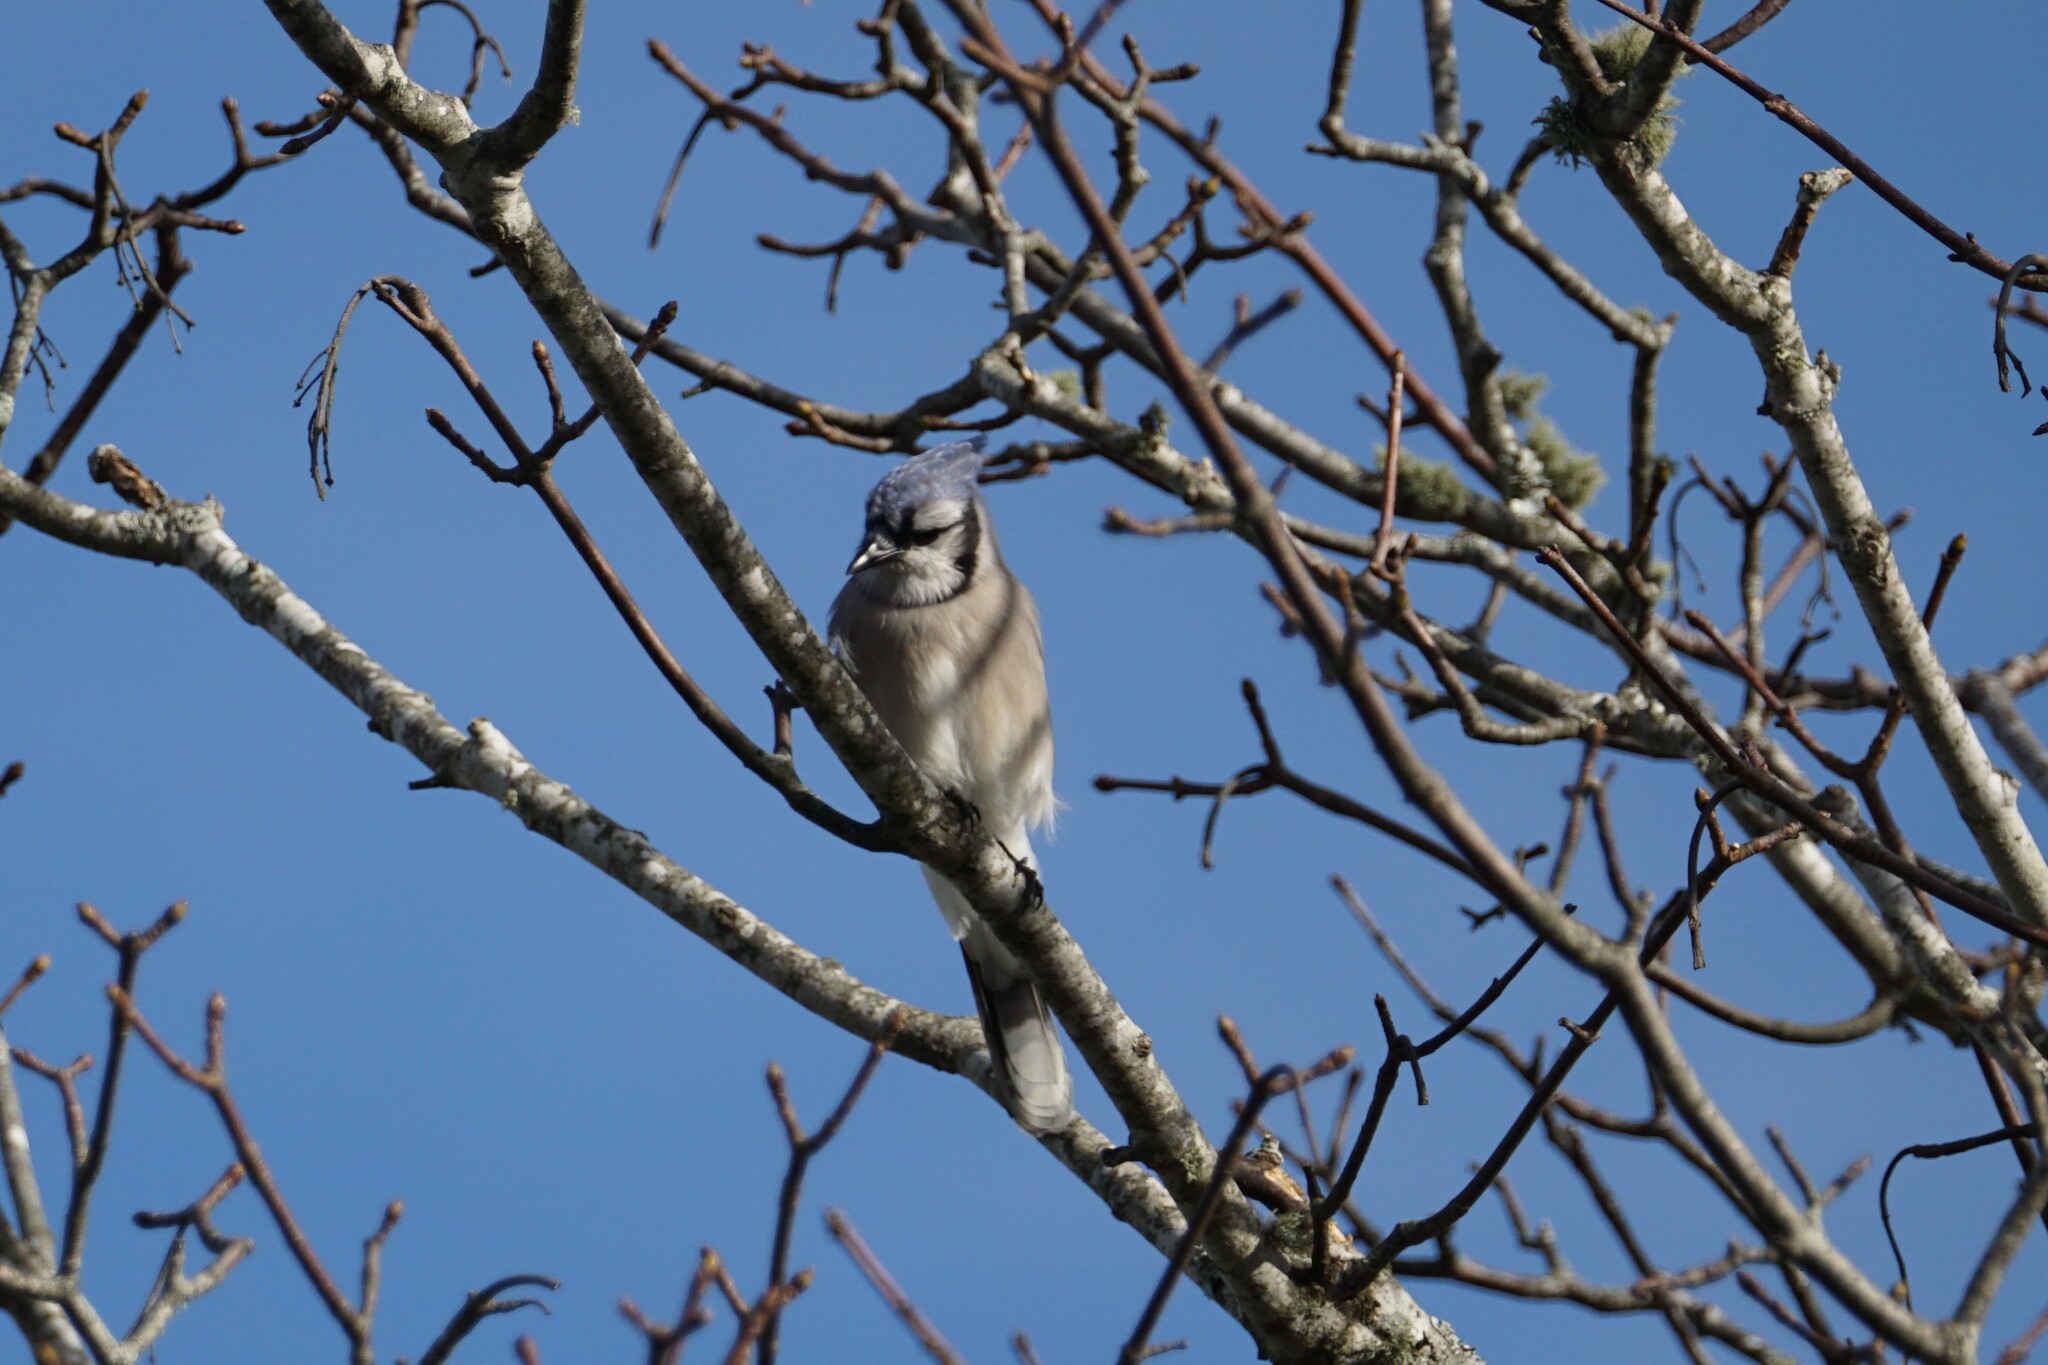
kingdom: Animalia
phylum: Chordata
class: Aves
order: Passeriformes
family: Corvidae
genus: Cyanocitta
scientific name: Cyanocitta cristata
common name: Blue jay
